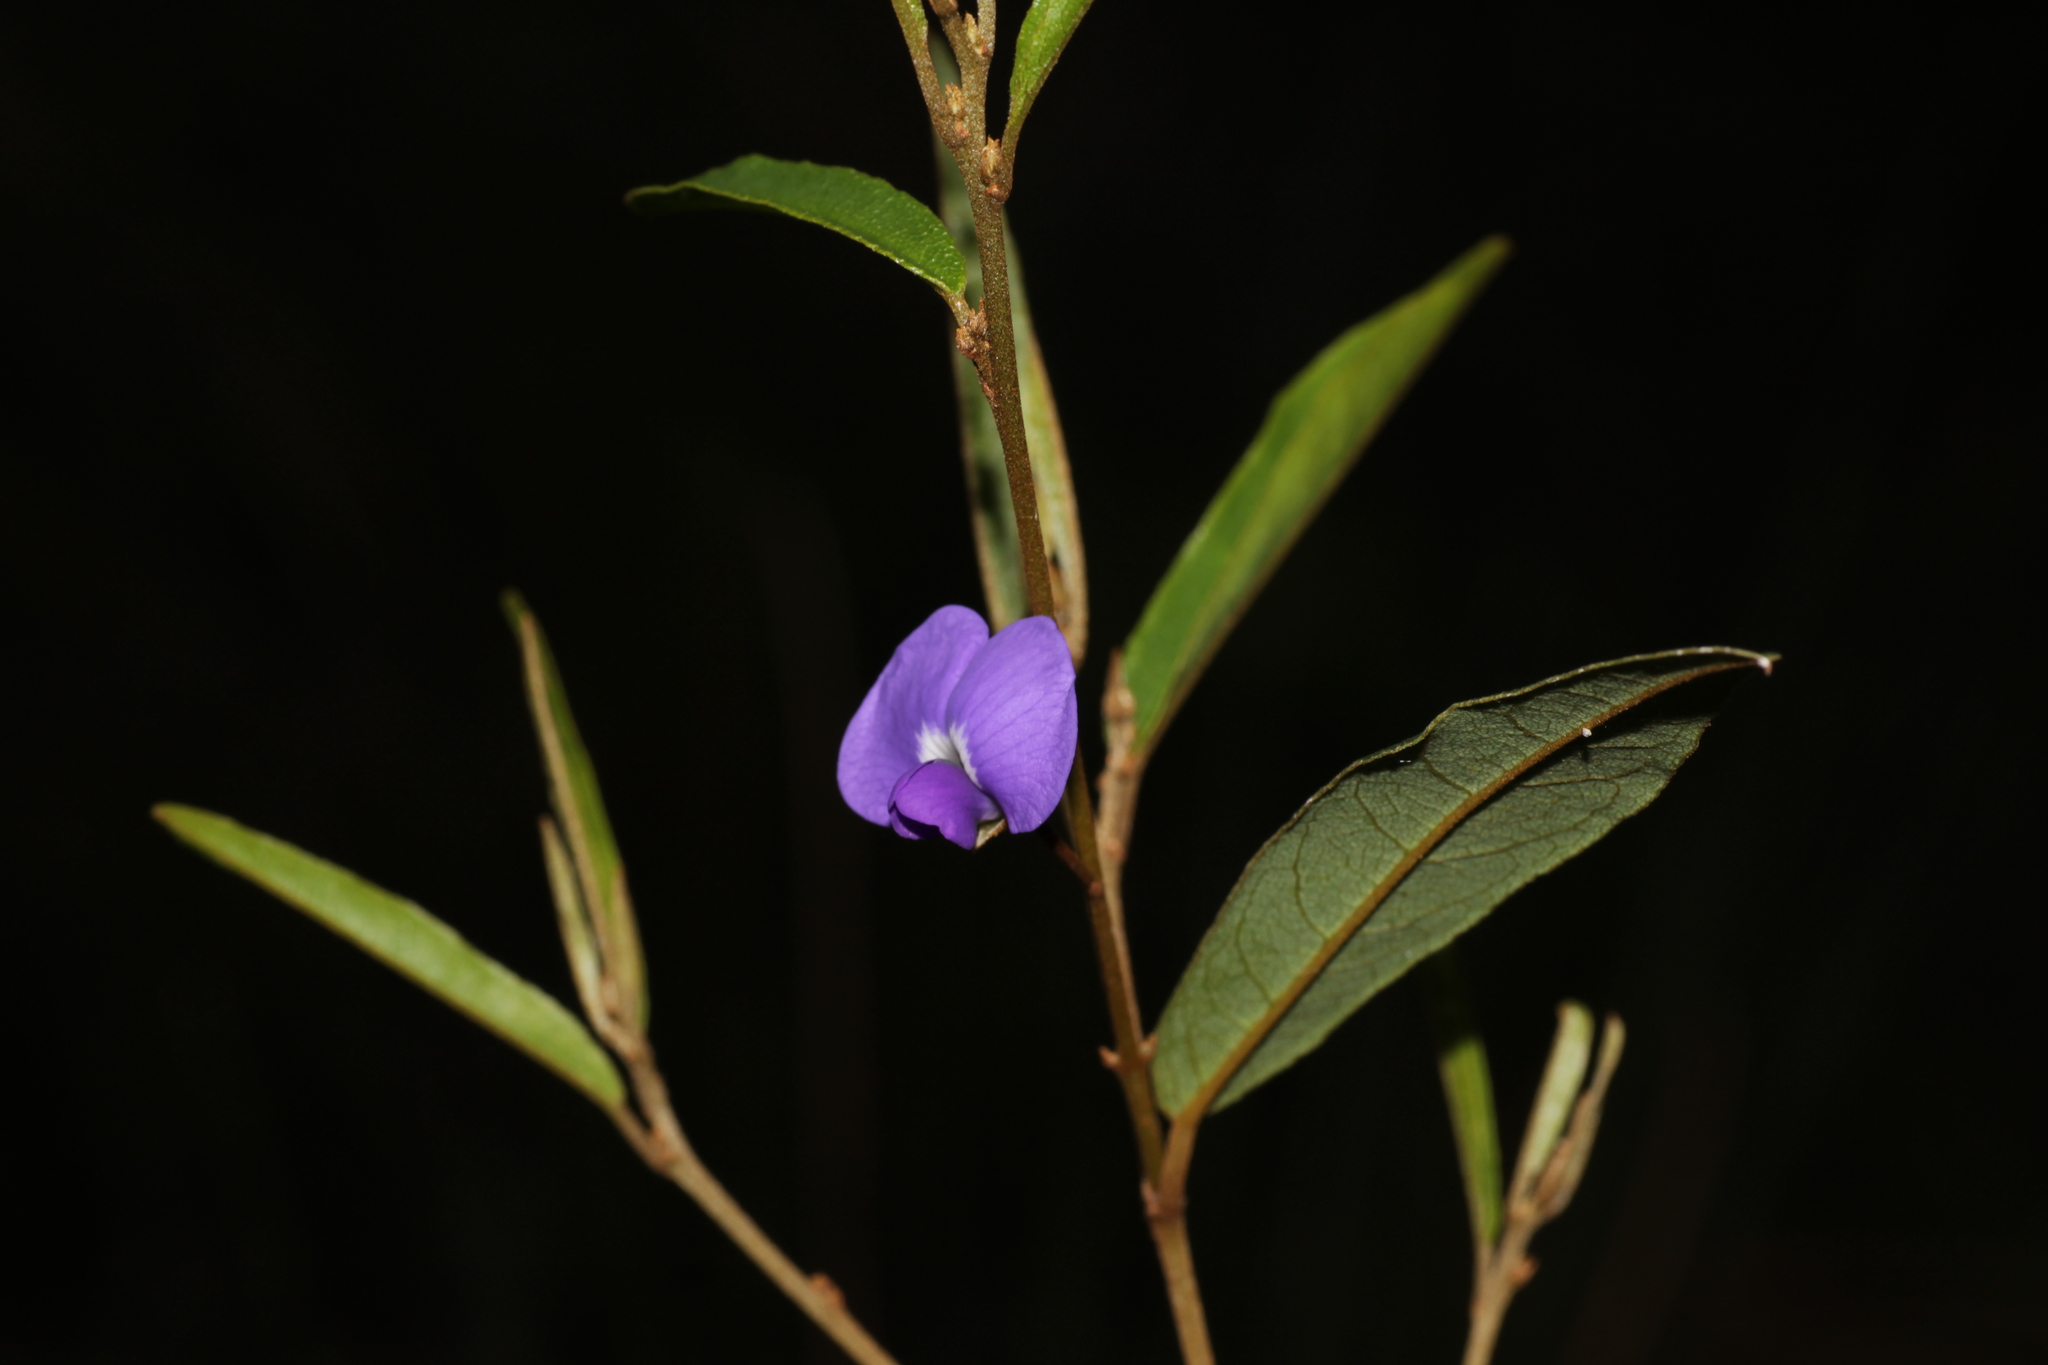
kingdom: Plantae
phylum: Tracheophyta
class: Magnoliopsida
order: Fabales
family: Fabaceae
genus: Hovea
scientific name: Hovea trisperma
